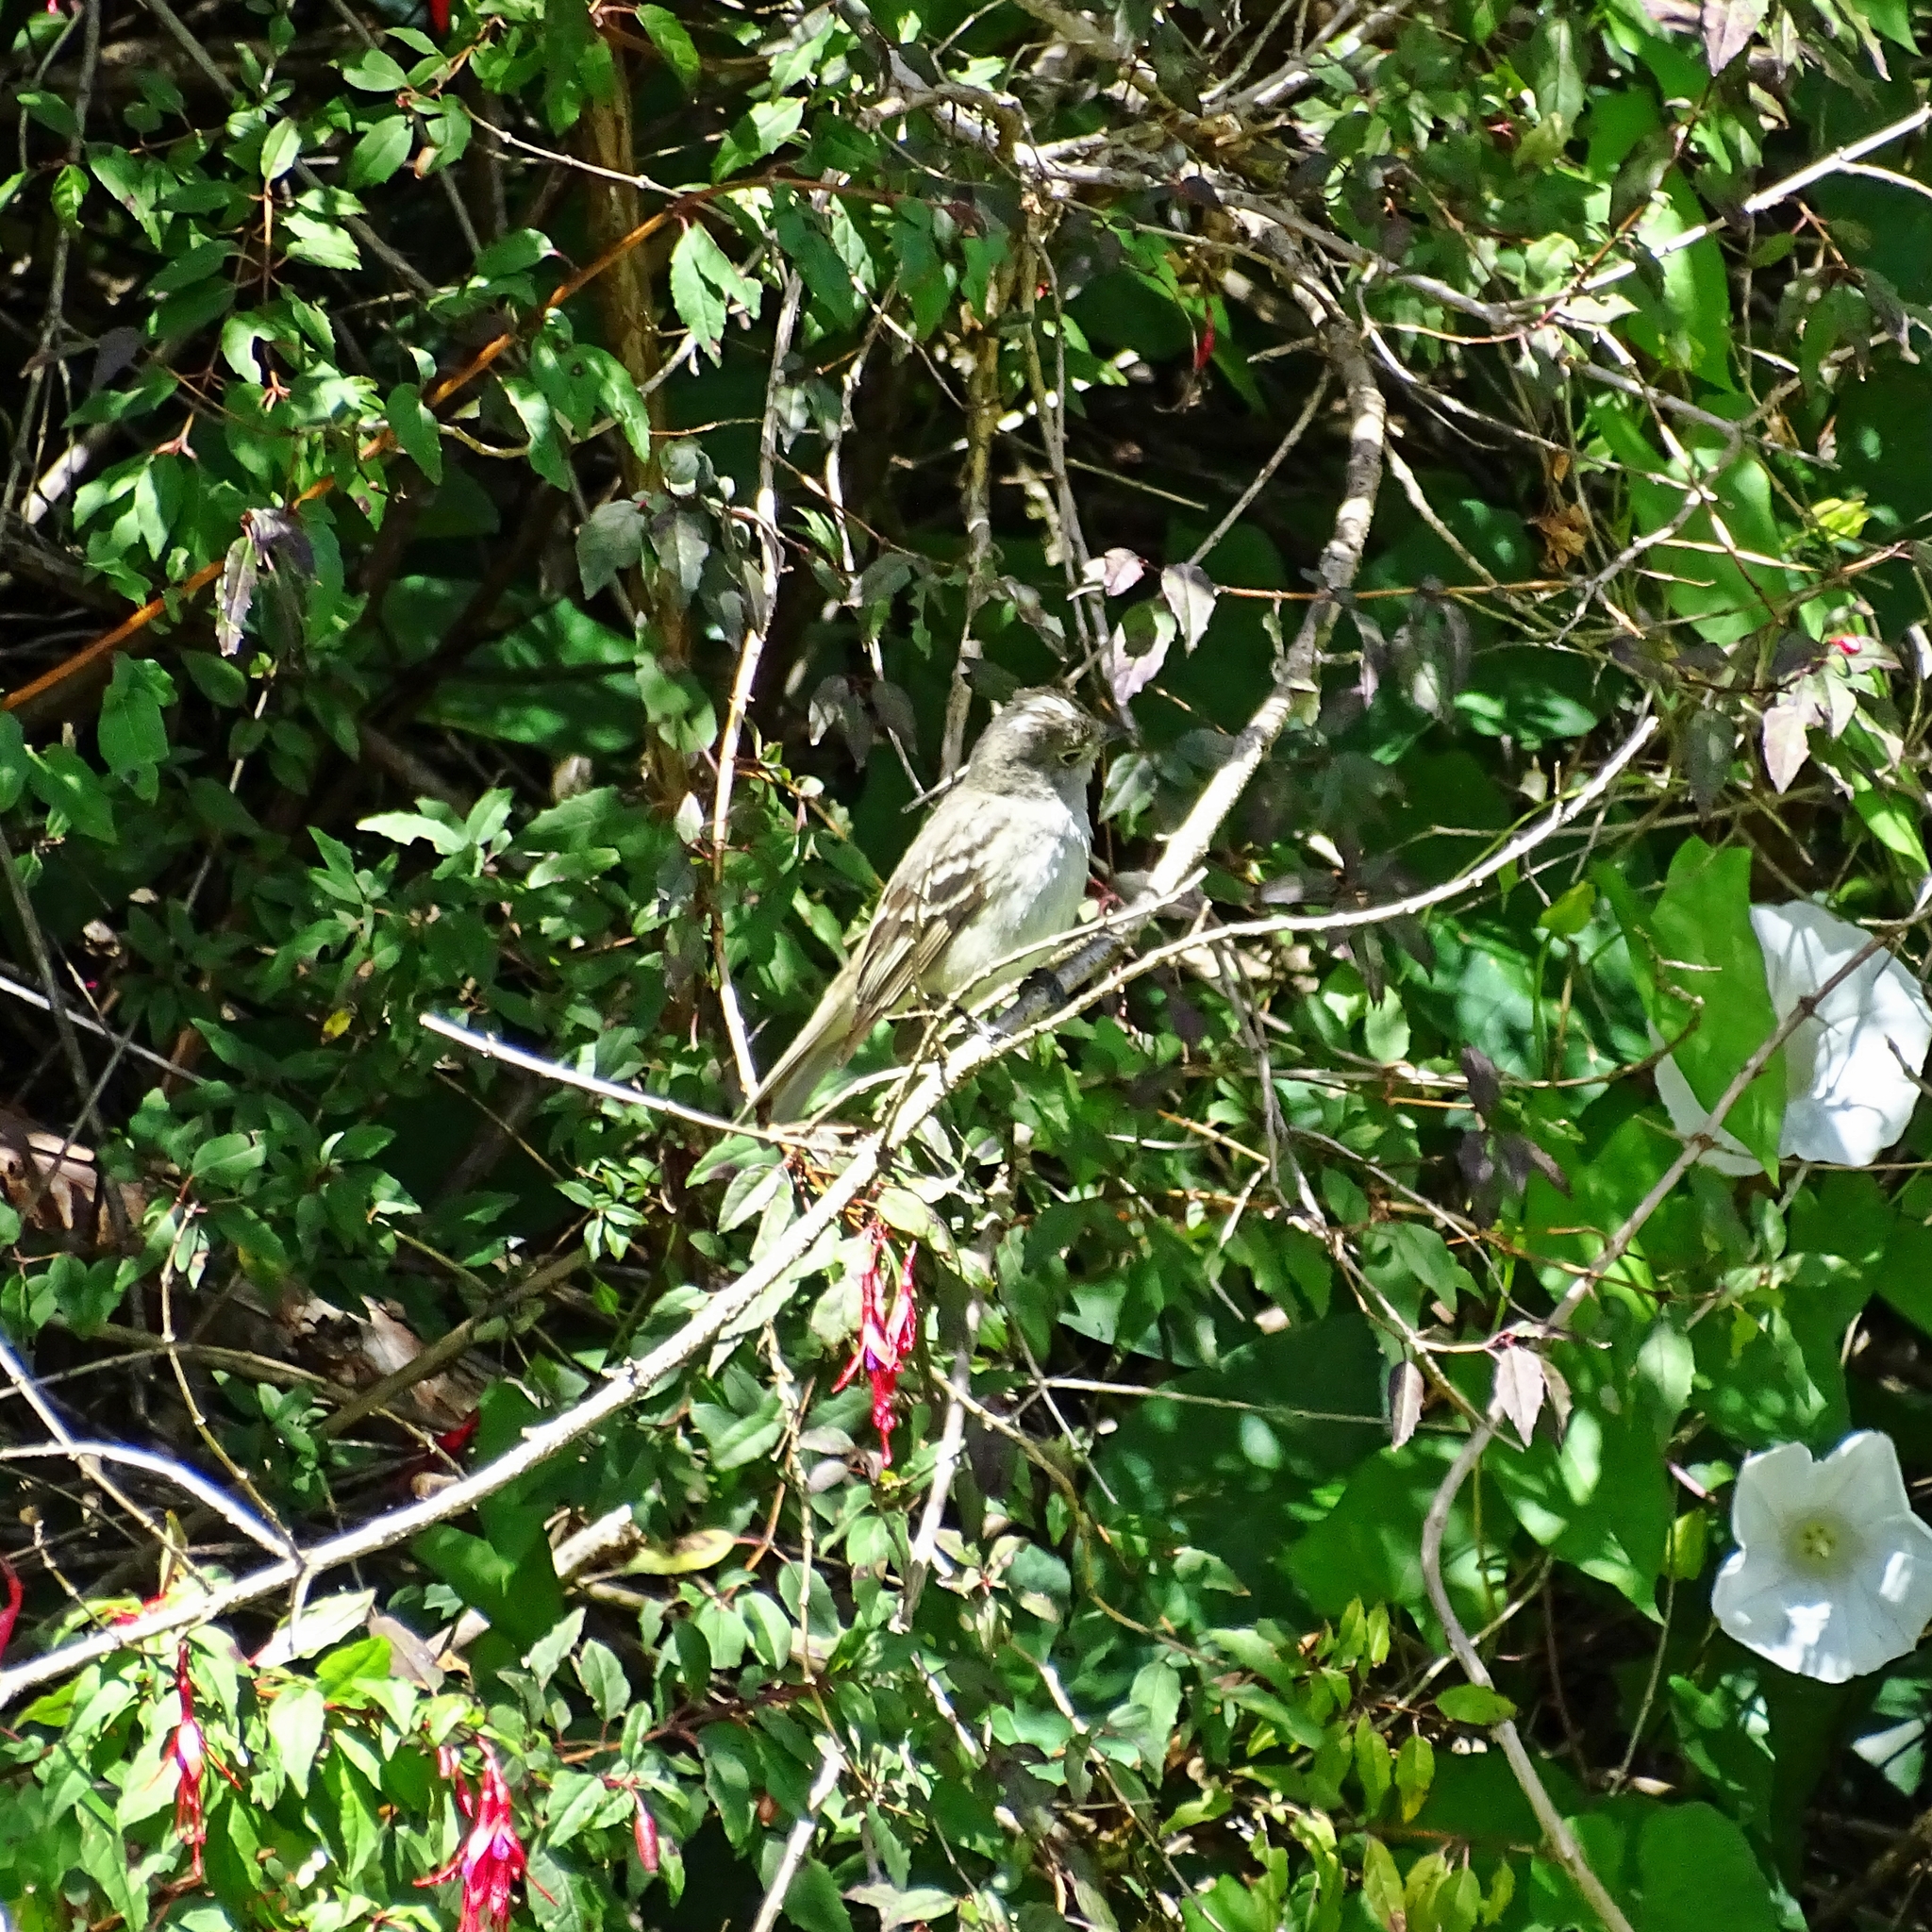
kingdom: Animalia
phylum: Chordata
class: Aves
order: Passeriformes
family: Tyrannidae
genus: Elaenia
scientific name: Elaenia albiceps
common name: White-crested elaenia
